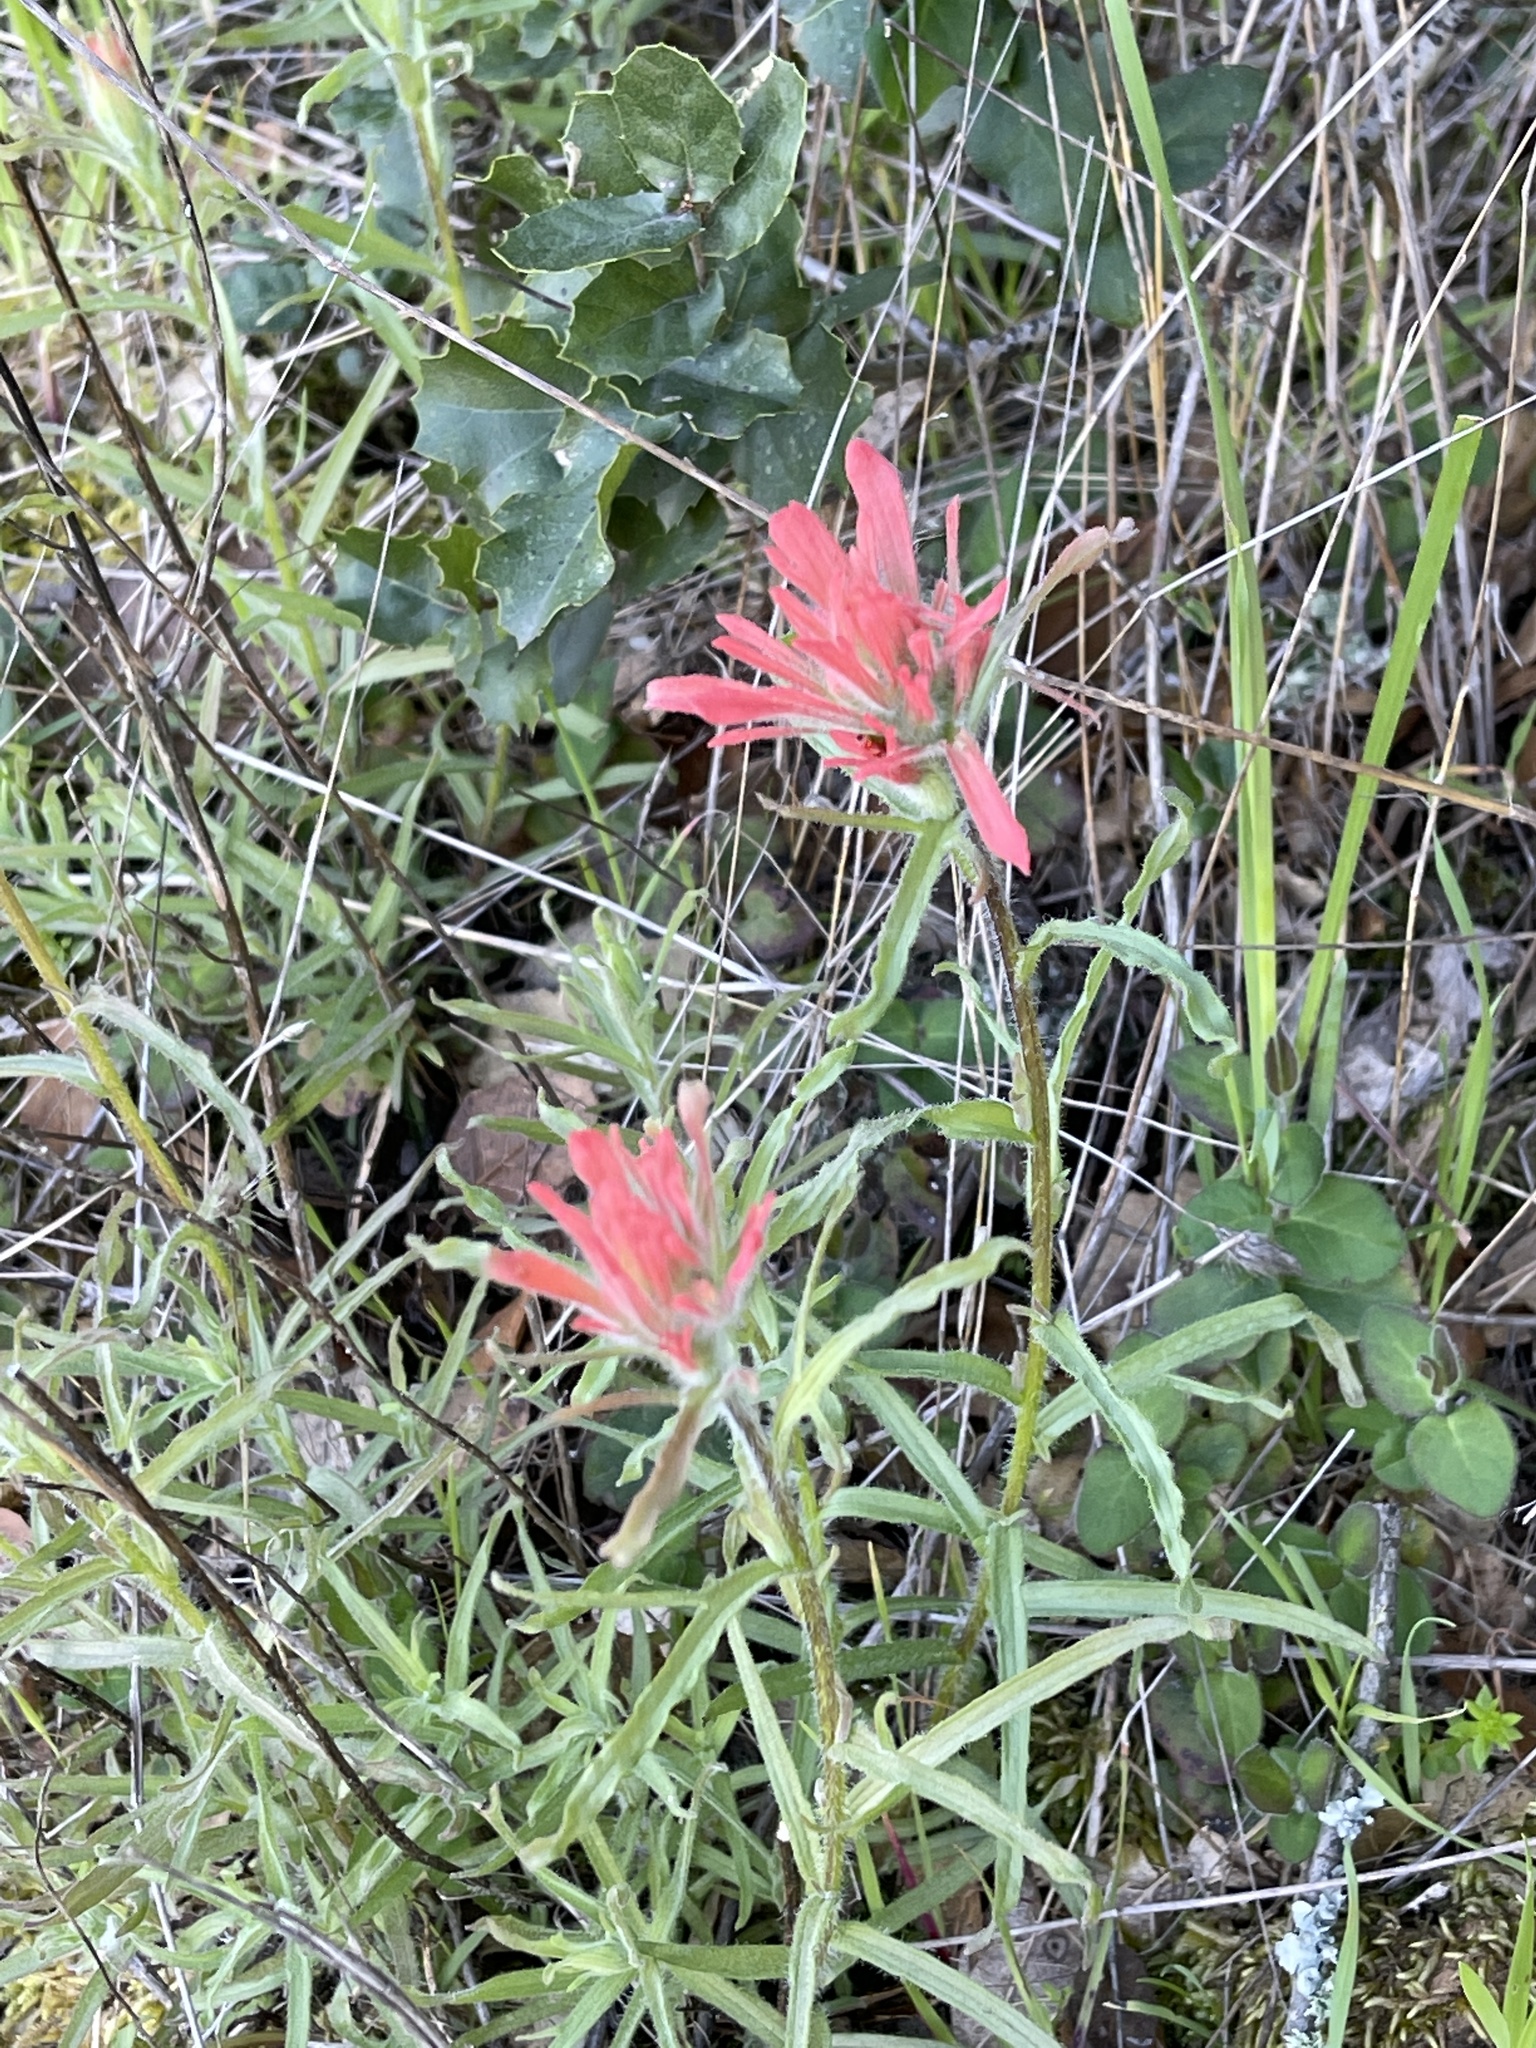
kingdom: Plantae
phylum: Tracheophyta
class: Magnoliopsida
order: Lamiales
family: Orobanchaceae
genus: Castilleja
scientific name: Castilleja affinis
